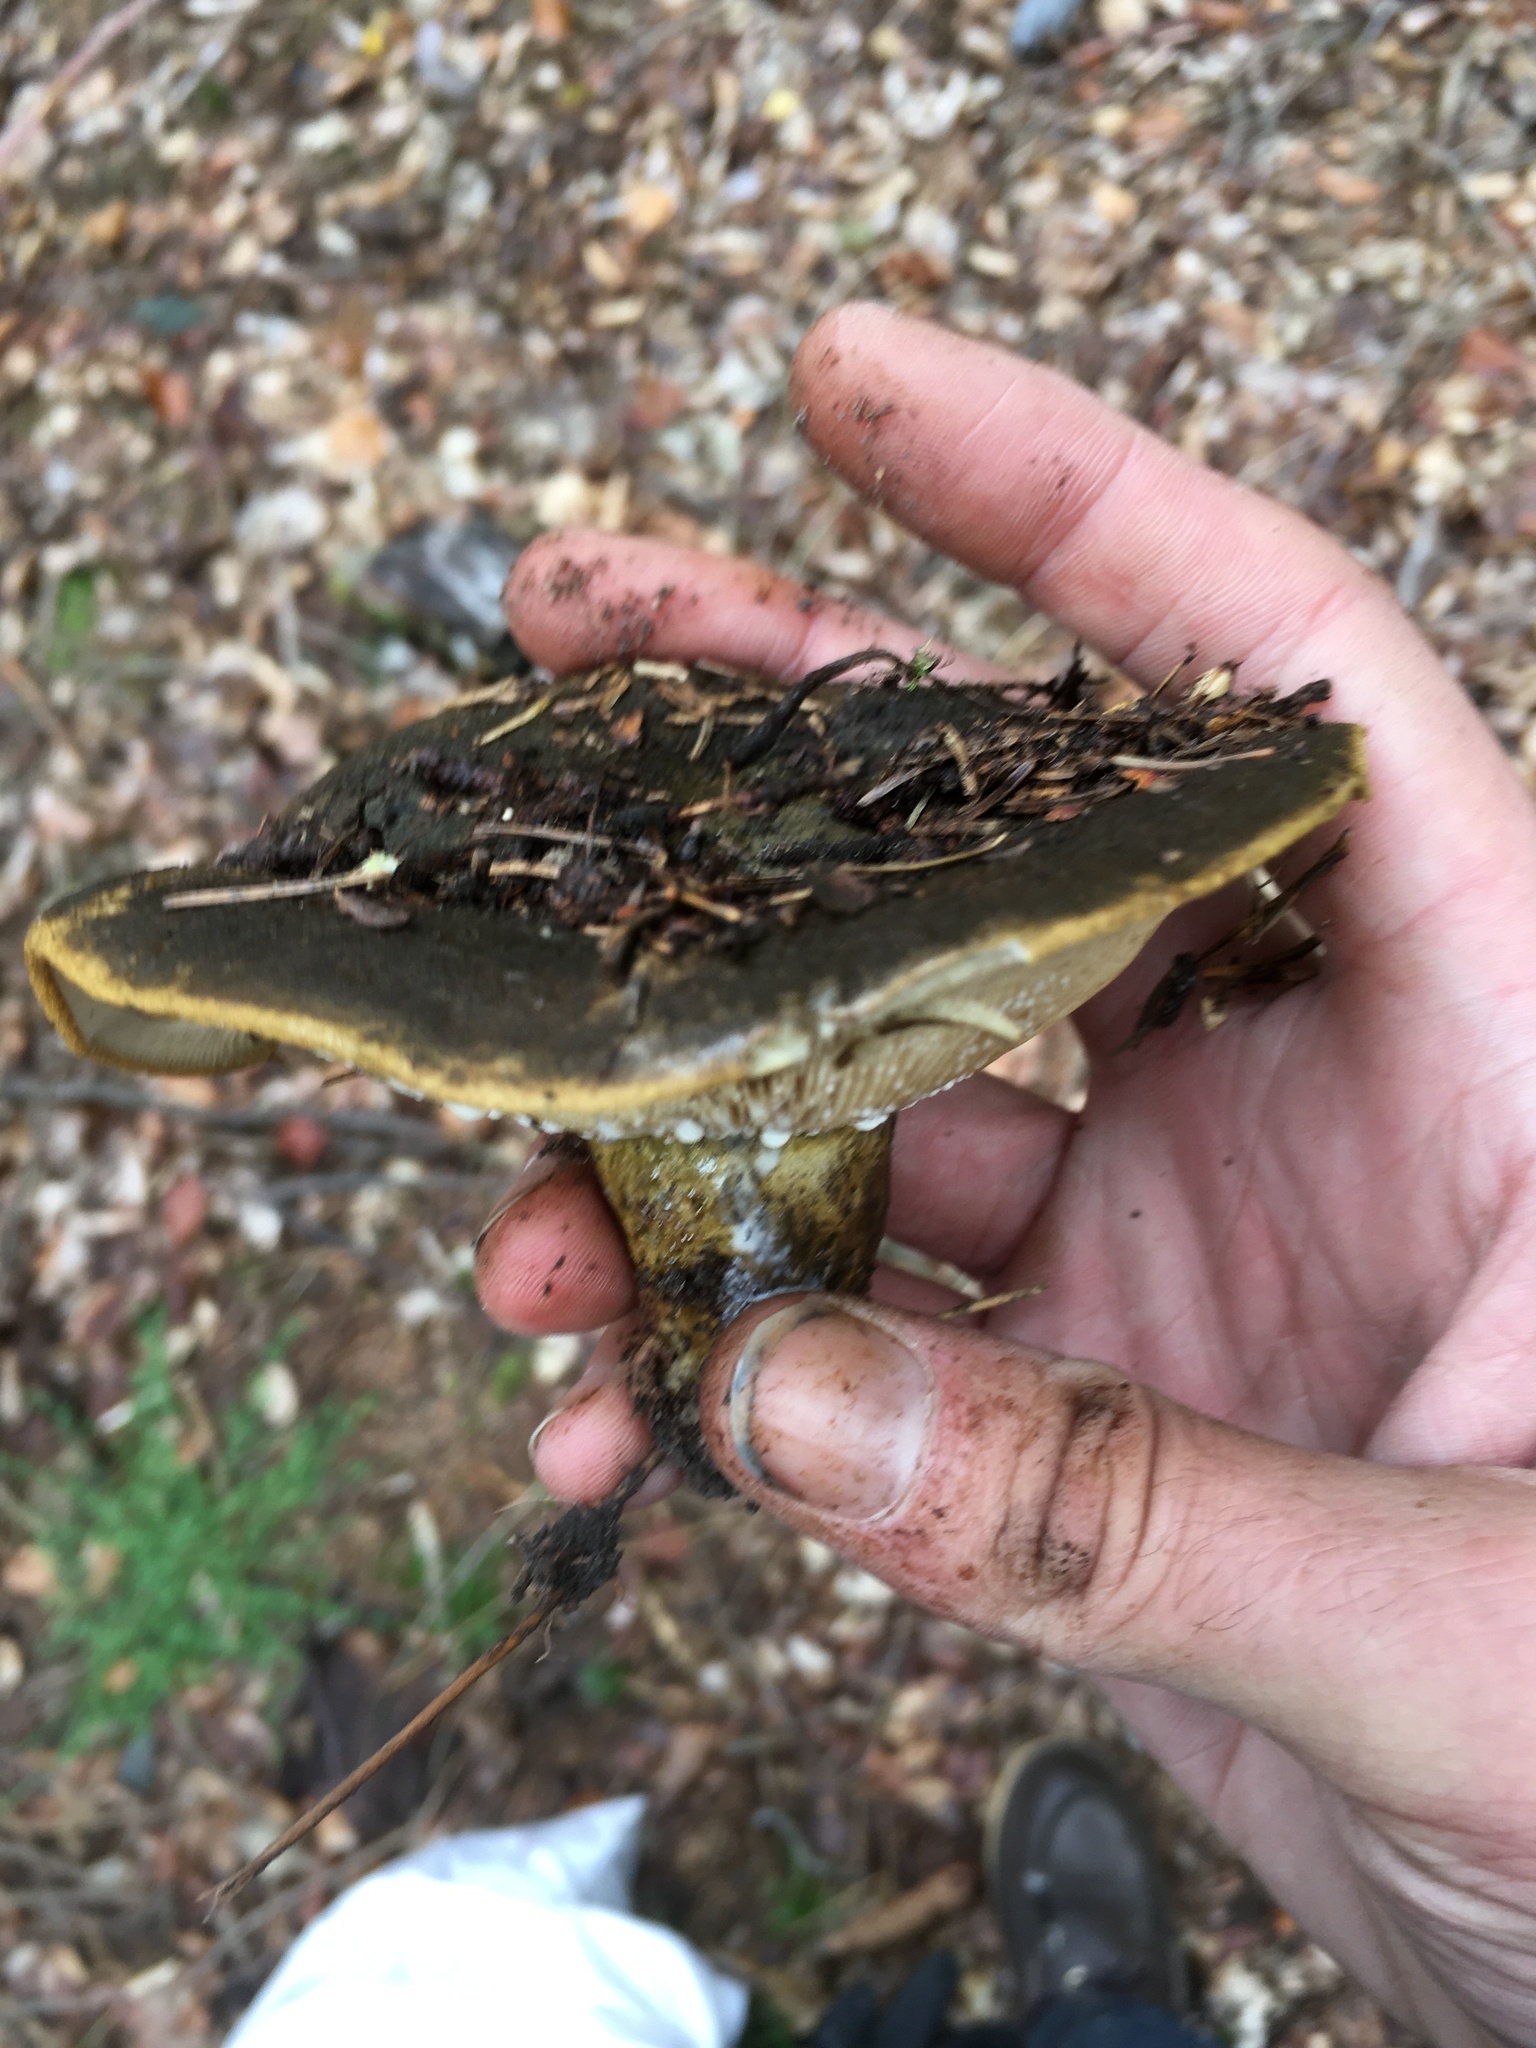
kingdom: Fungi
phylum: Basidiomycota
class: Agaricomycetes
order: Russulales
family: Russulaceae
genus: Lactarius
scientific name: Lactarius turpis
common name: Ugly milk-cap
